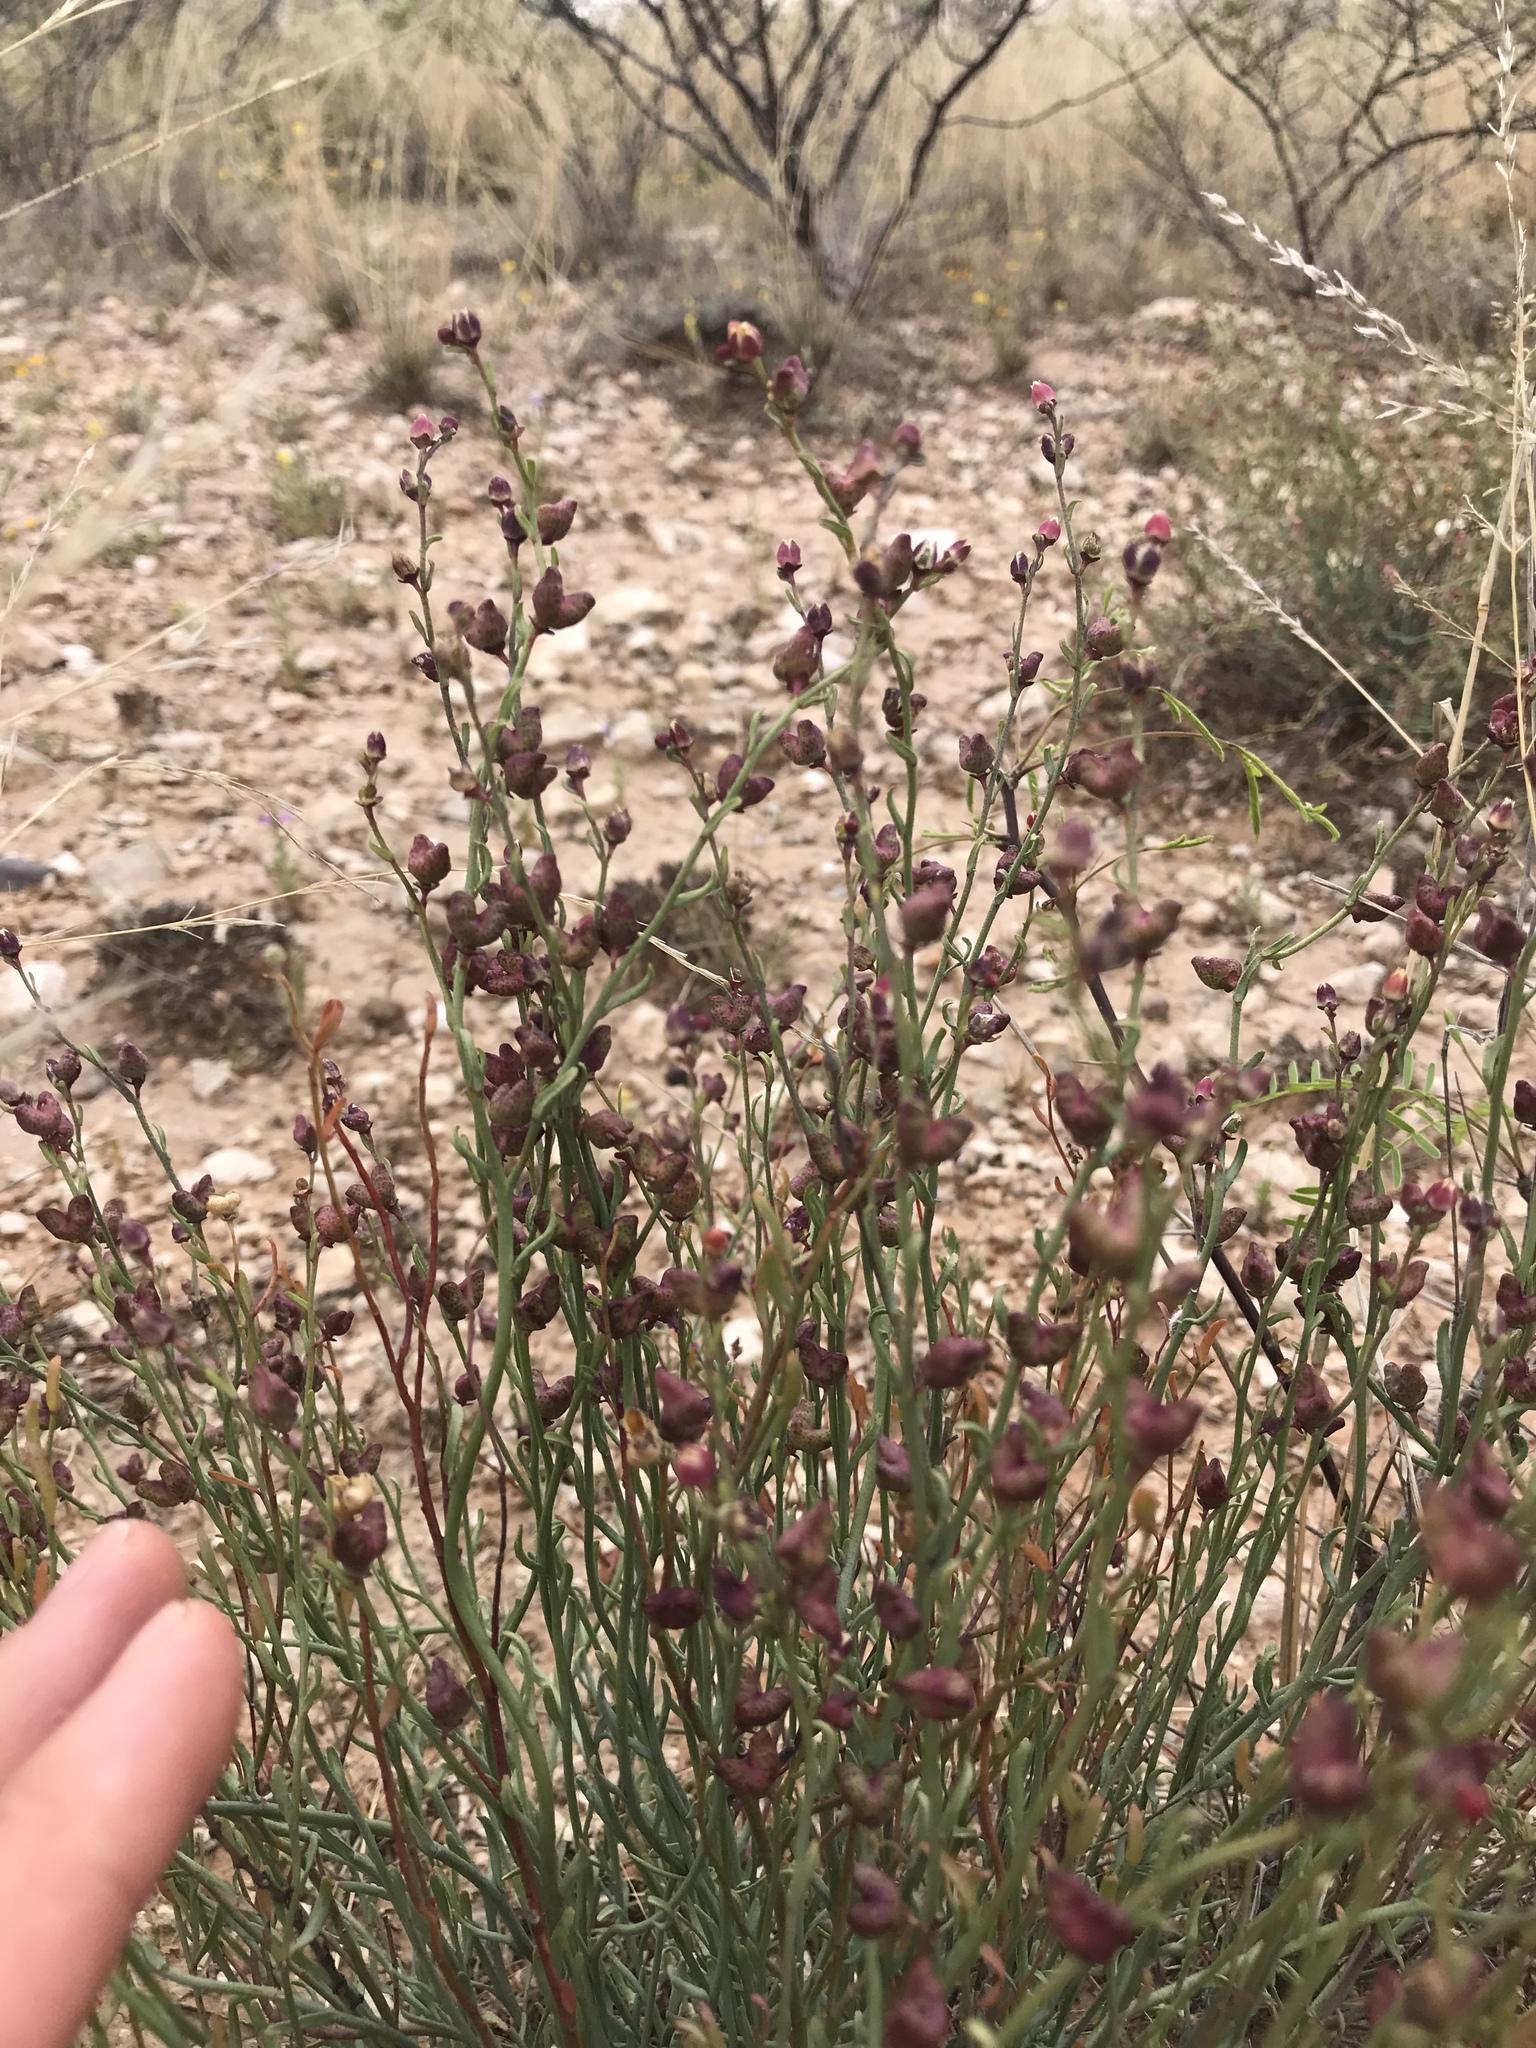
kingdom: Plantae
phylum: Tracheophyta
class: Magnoliopsida
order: Sapindales
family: Rutaceae
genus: Thamnosma
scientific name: Thamnosma texana
